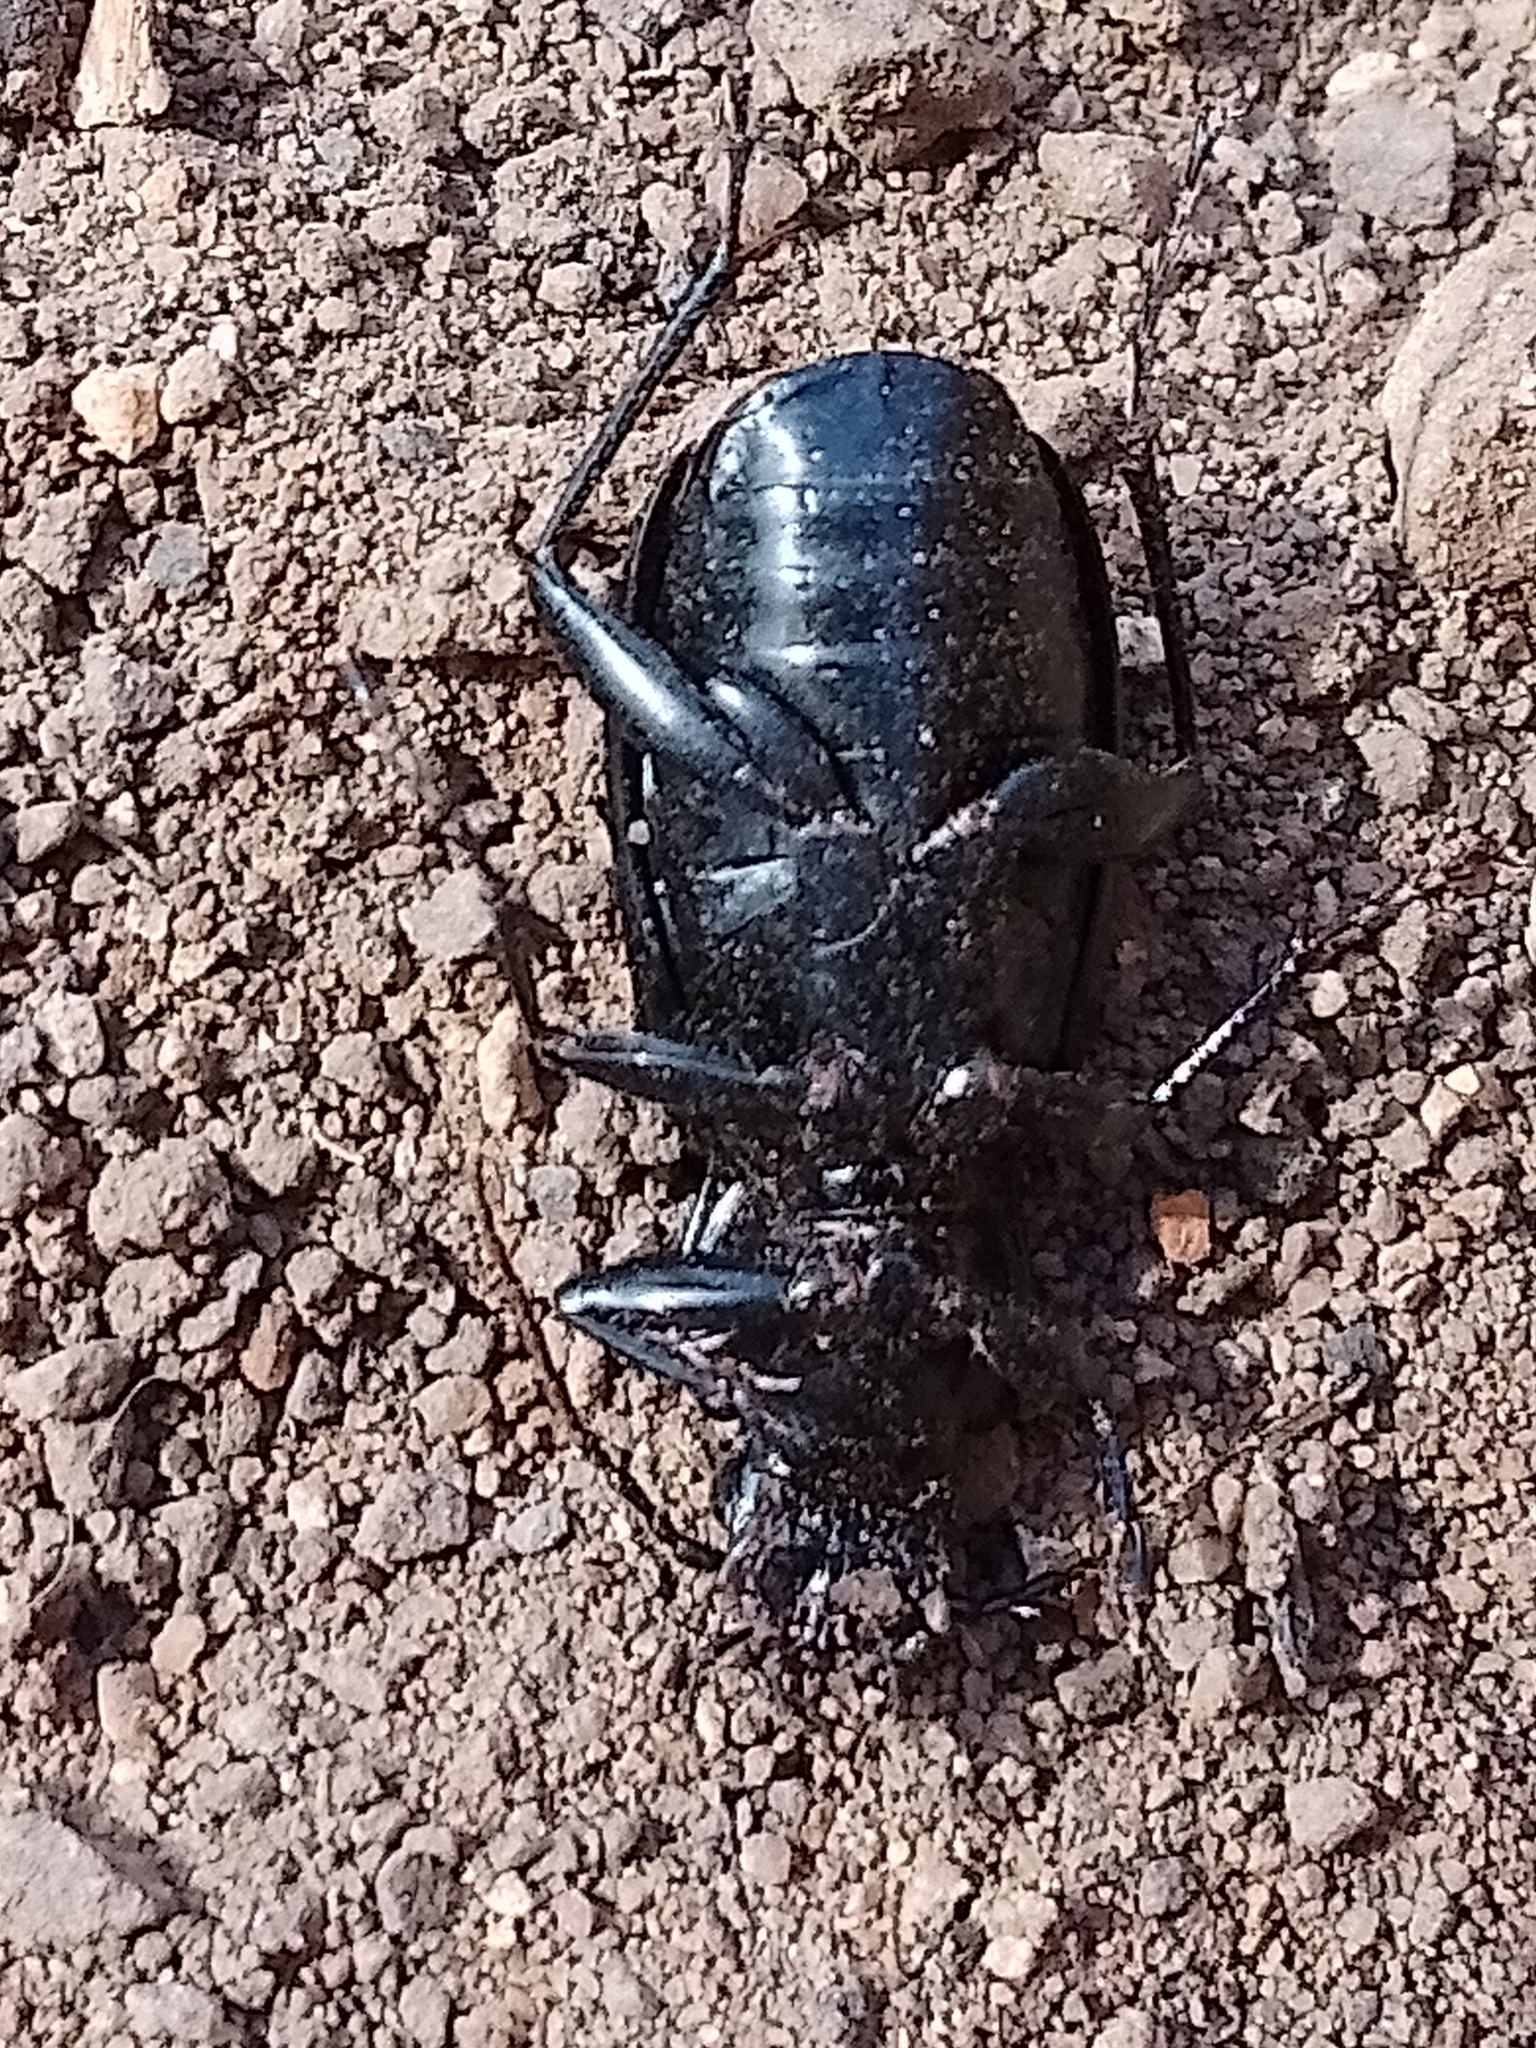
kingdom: Animalia
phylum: Arthropoda
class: Insecta
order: Coleoptera
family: Carabidae
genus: Pterostichus
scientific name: Pterostichus niger
